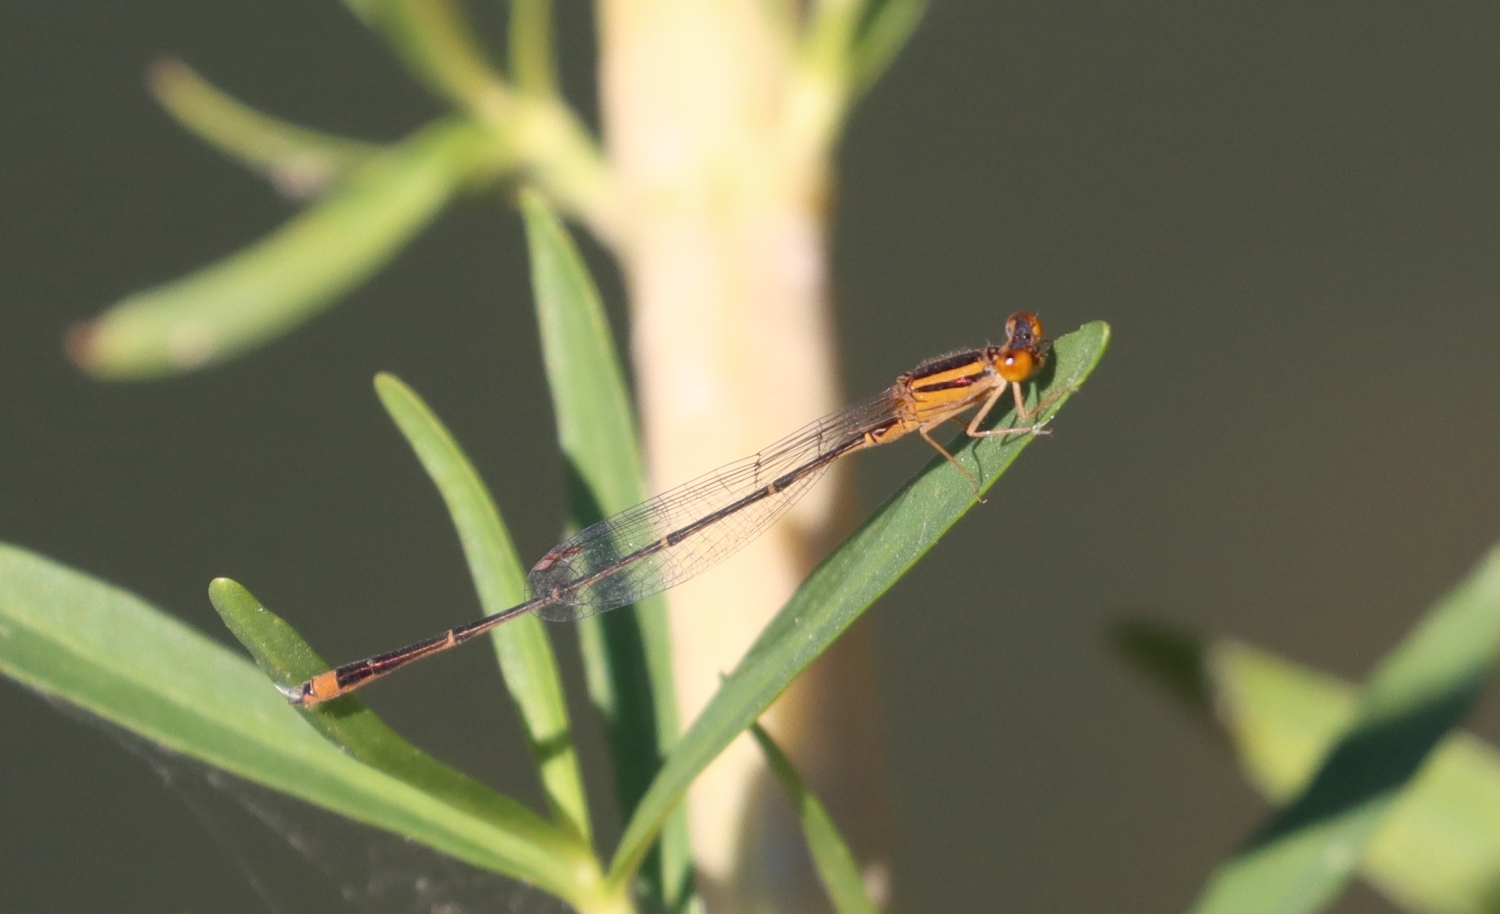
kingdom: Animalia
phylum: Arthropoda
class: Insecta
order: Odonata
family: Coenagrionidae
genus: Enallagma
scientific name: Enallagma signatum
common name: Orange bluet
